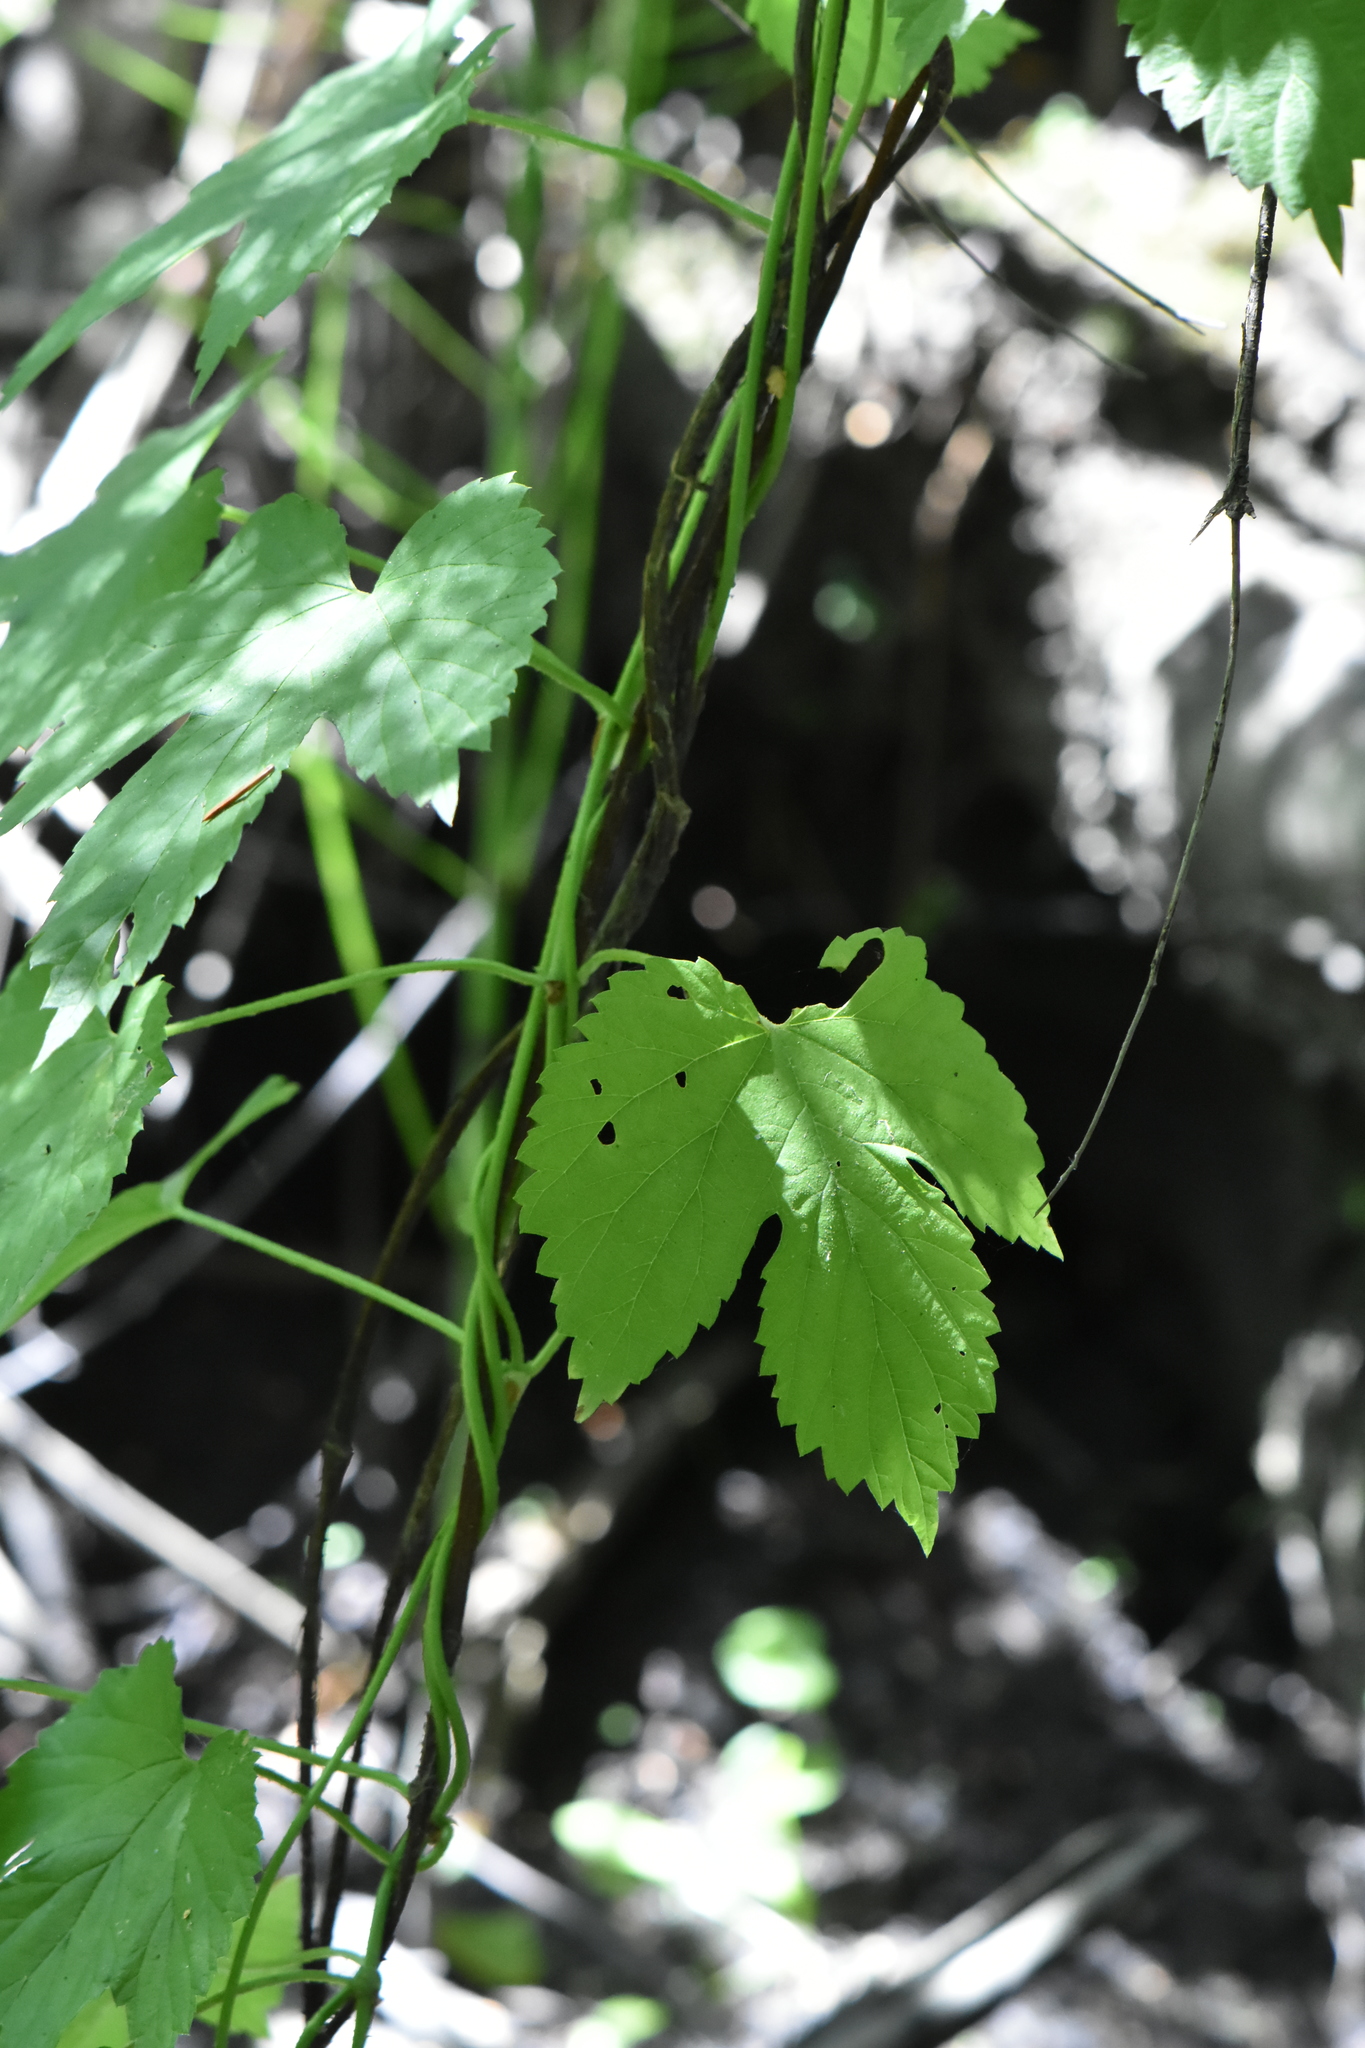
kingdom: Plantae
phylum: Tracheophyta
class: Magnoliopsida
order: Rosales
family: Cannabaceae
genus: Humulus
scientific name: Humulus lupulus
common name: Hop
